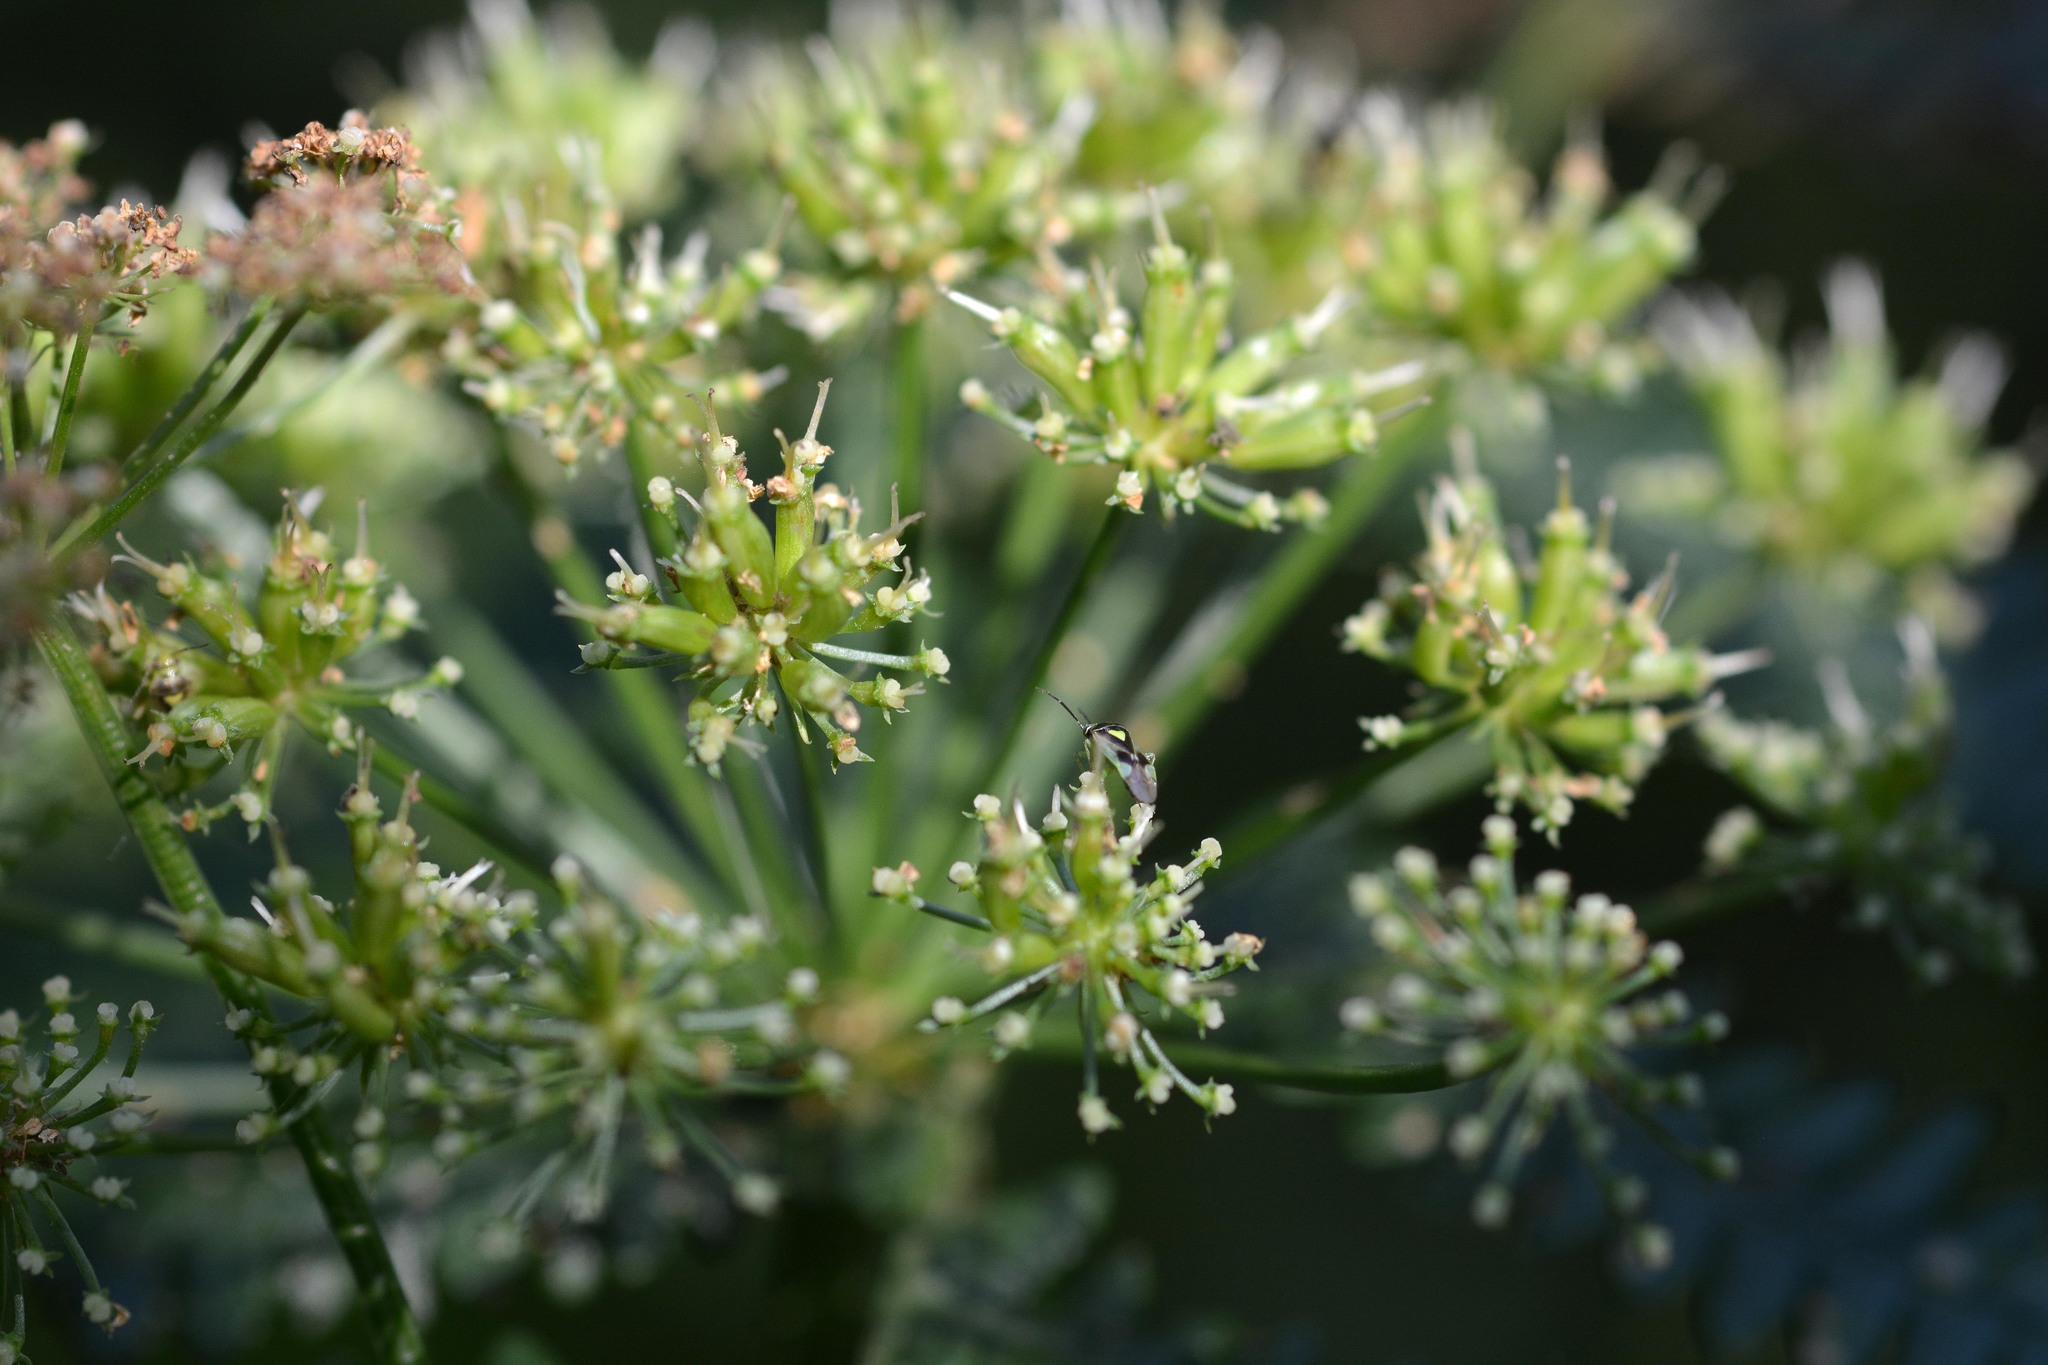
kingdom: Animalia
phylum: Arthropoda
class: Insecta
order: Hemiptera
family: Miridae
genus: Orthops
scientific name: Orthops campestris
